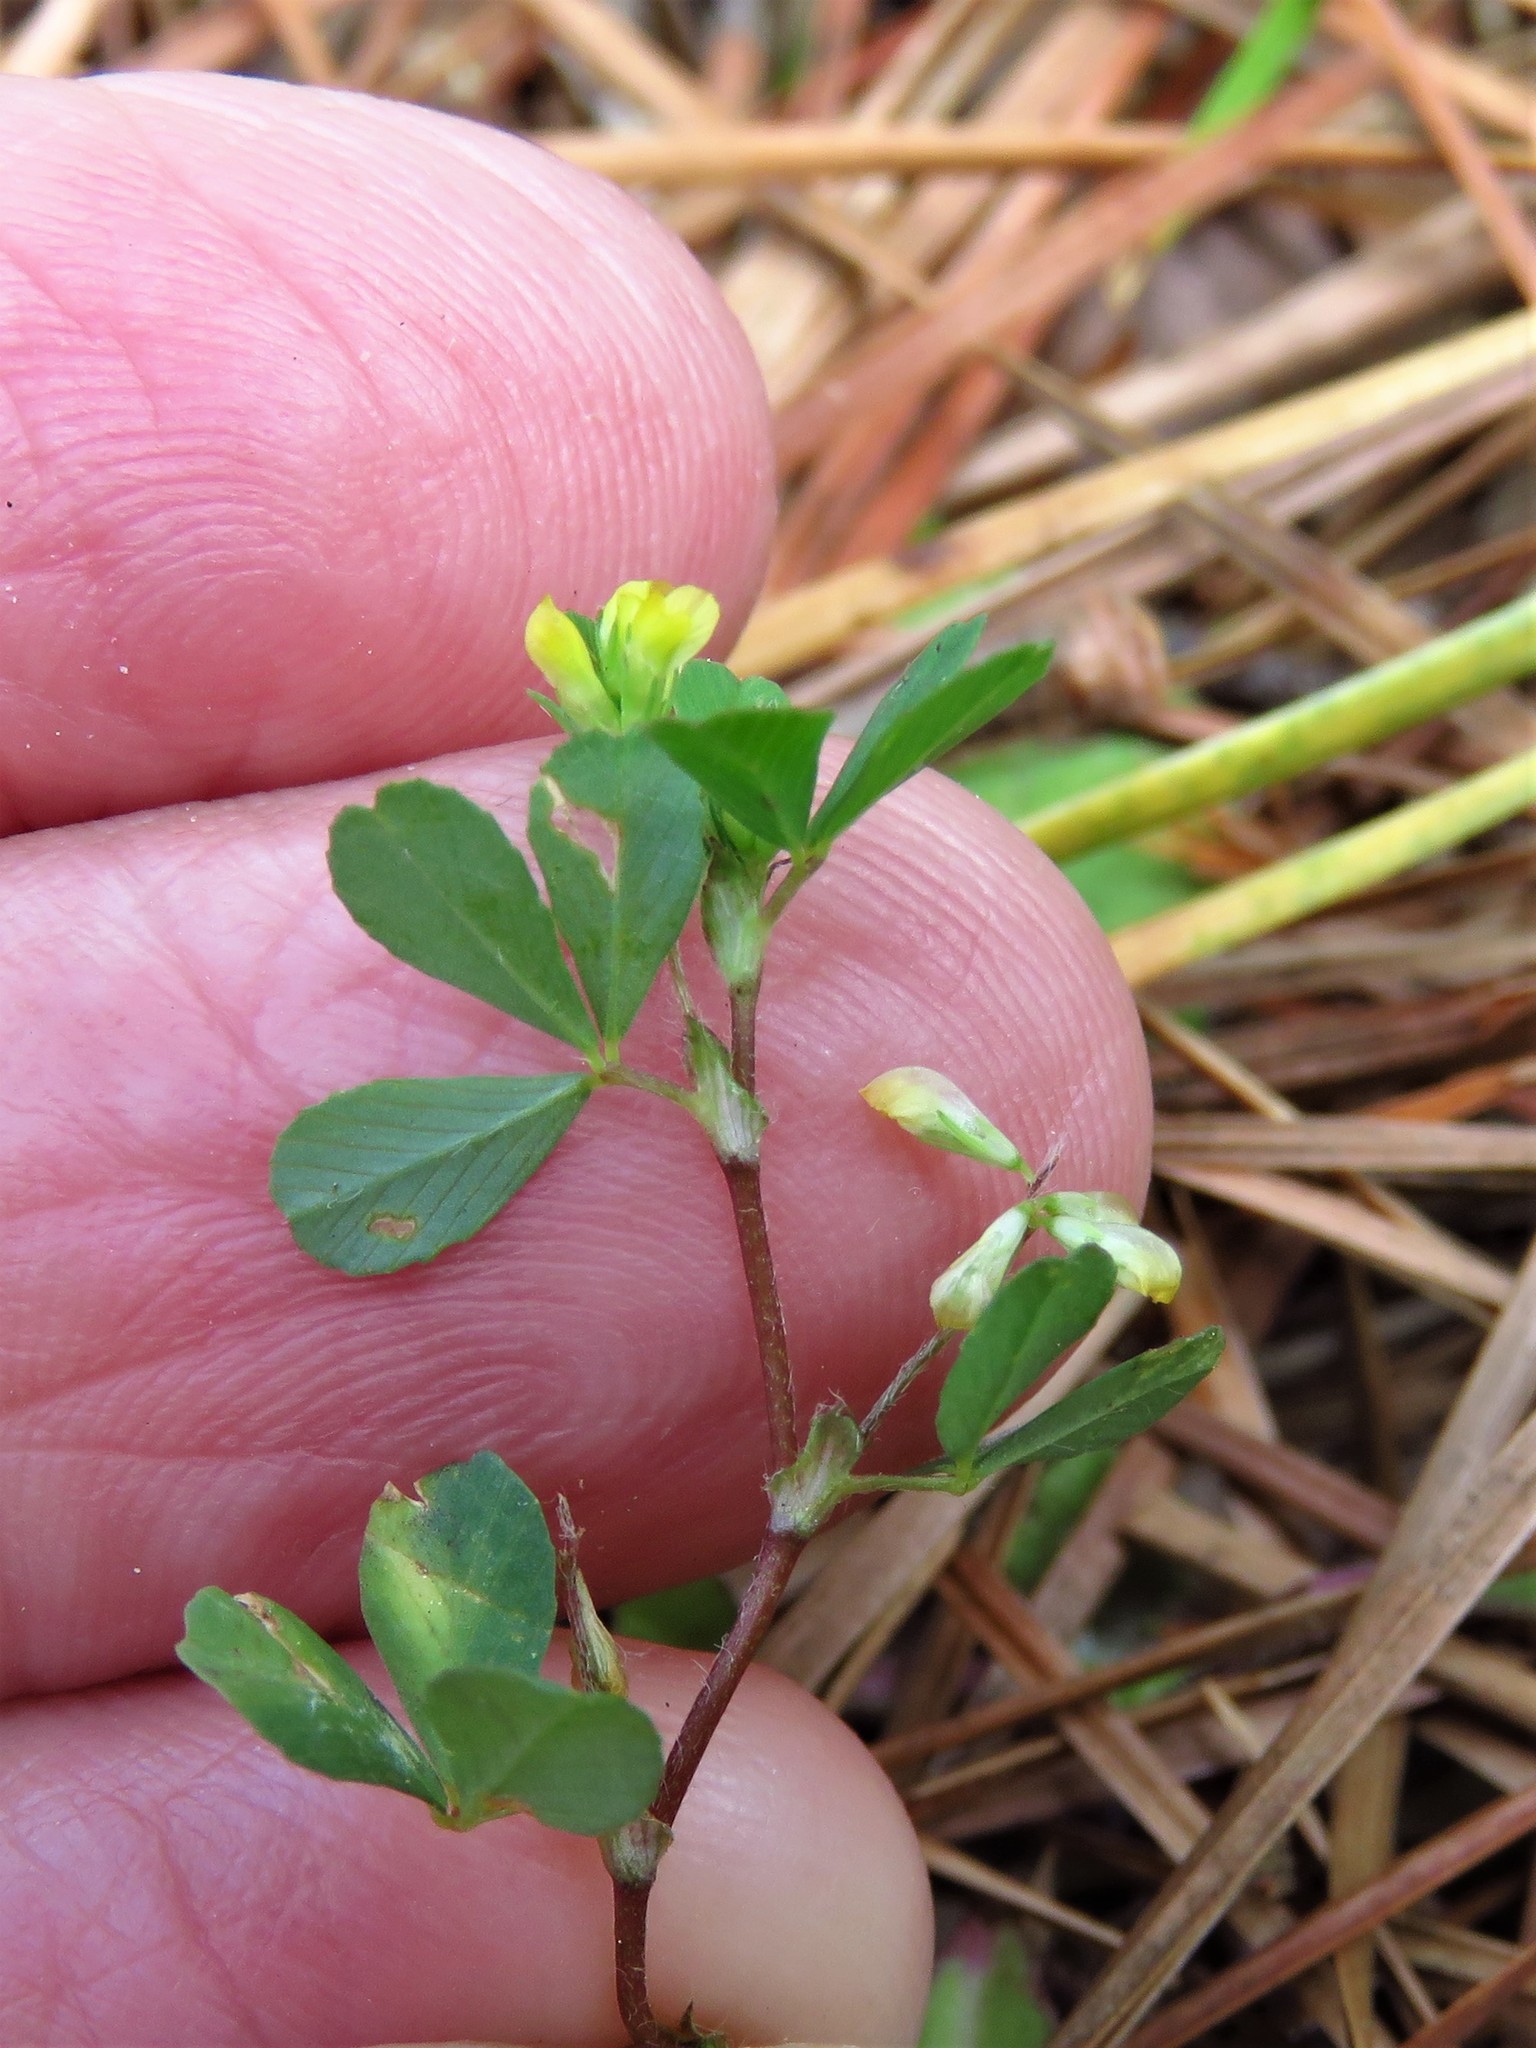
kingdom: Plantae
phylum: Tracheophyta
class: Magnoliopsida
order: Fabales
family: Fabaceae
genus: Trifolium
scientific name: Trifolium dubium
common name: Suckling clover
